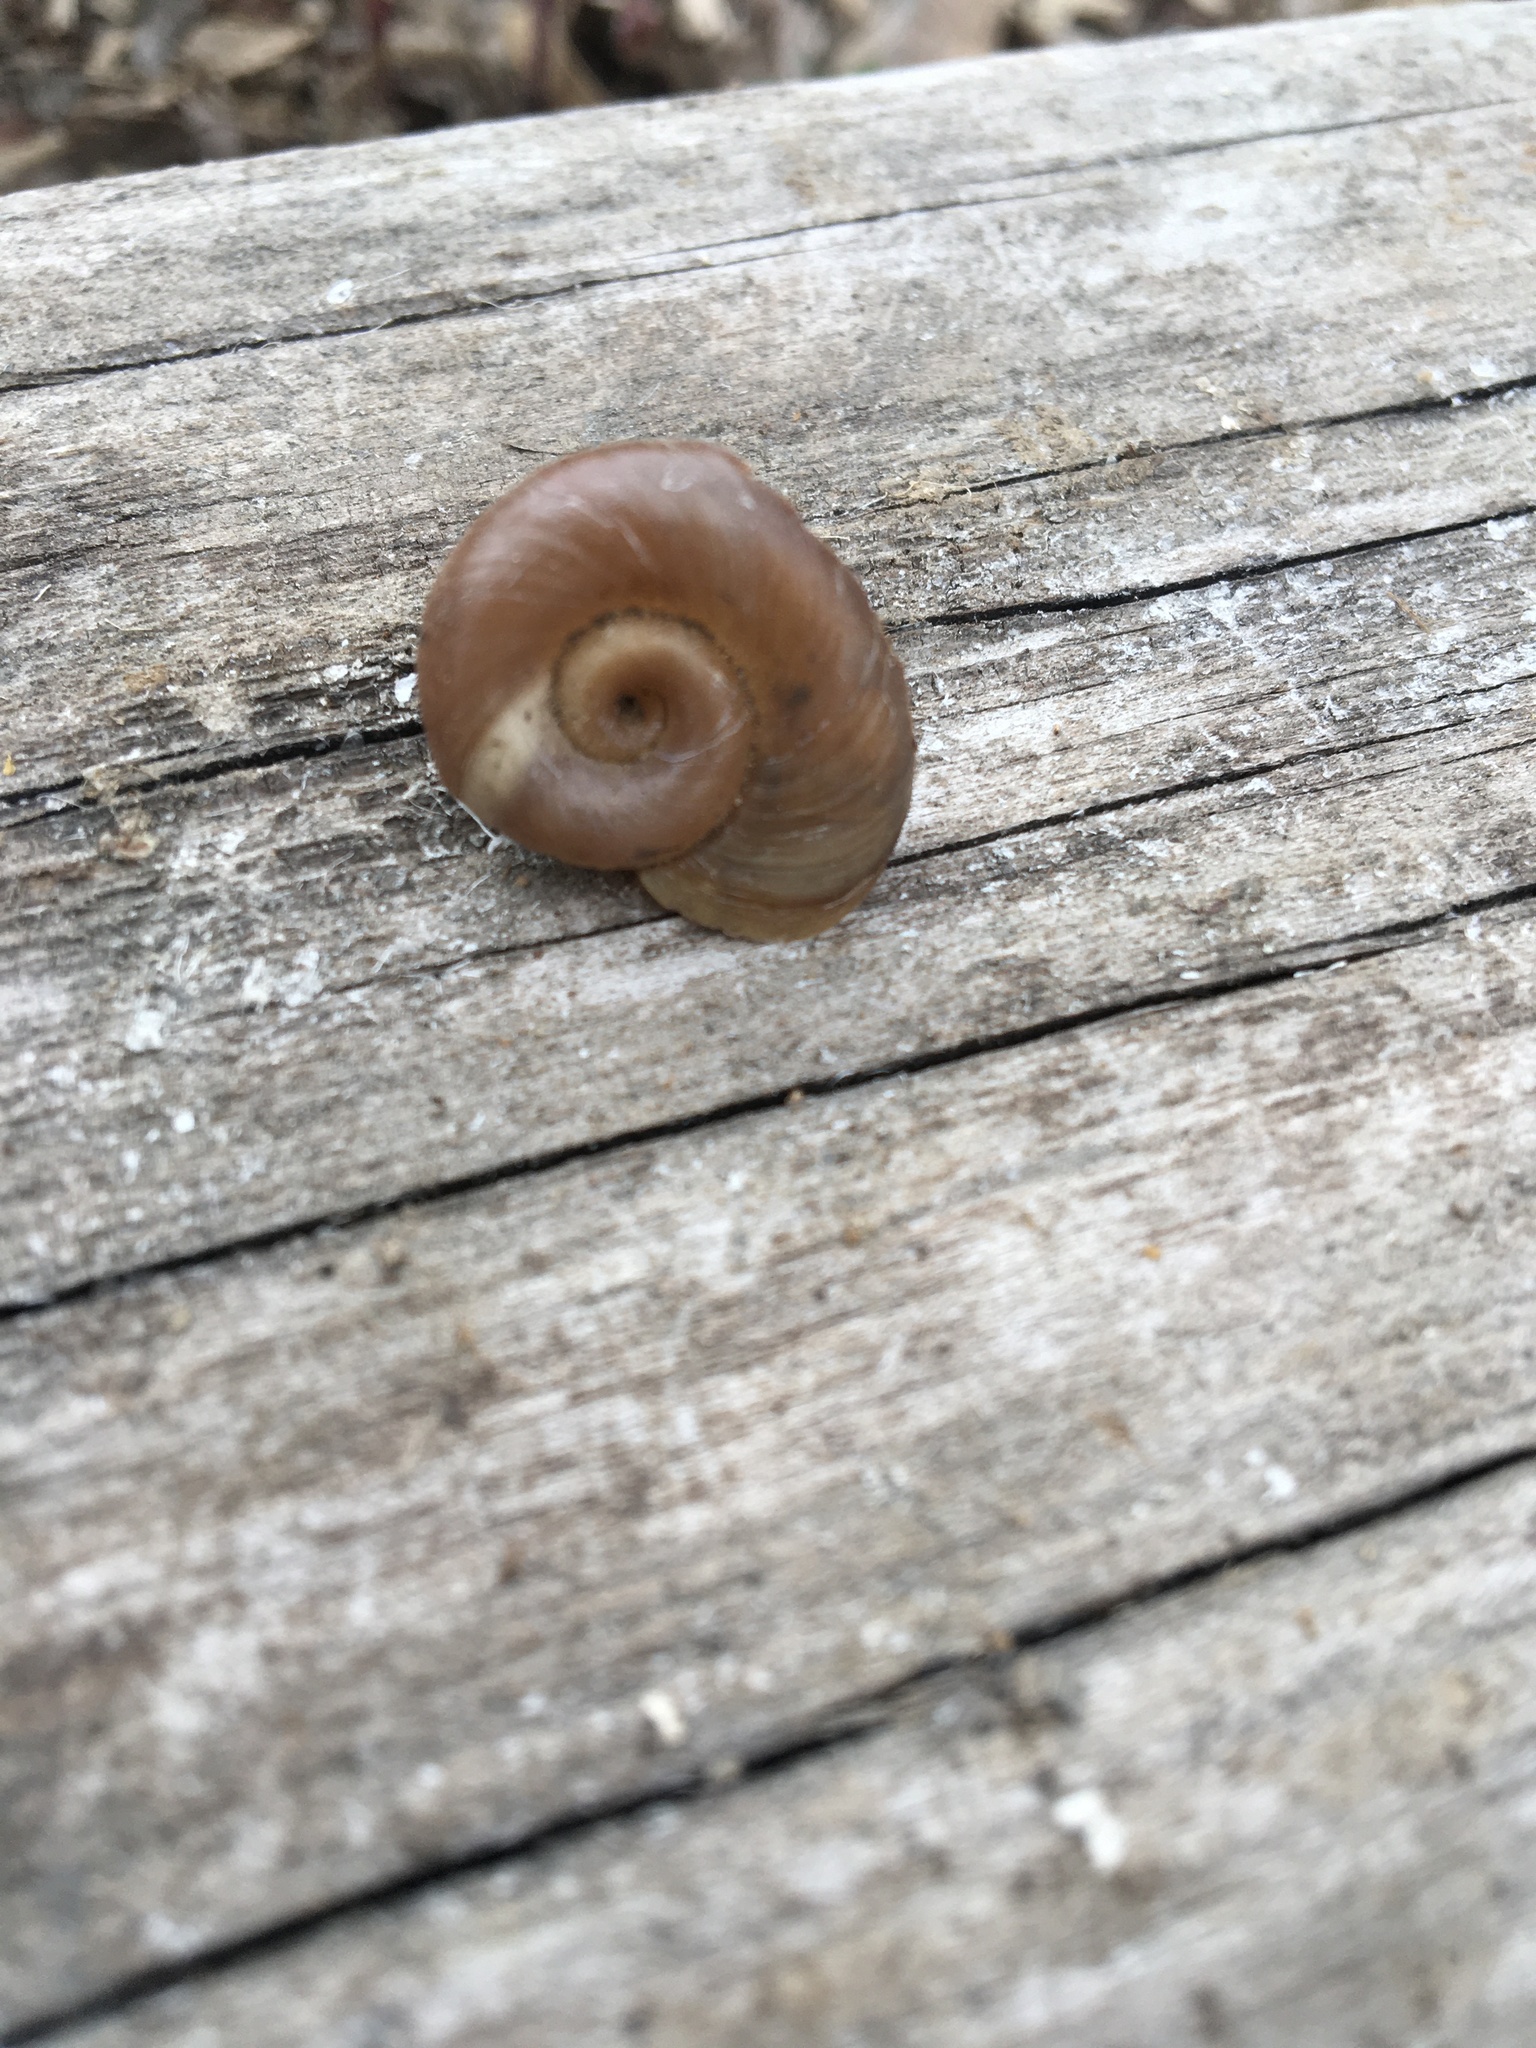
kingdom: Animalia
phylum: Mollusca
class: Gastropoda
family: Planorbidae
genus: Planorbella
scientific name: Planorbella trivolvis
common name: Marsh rams-horn
